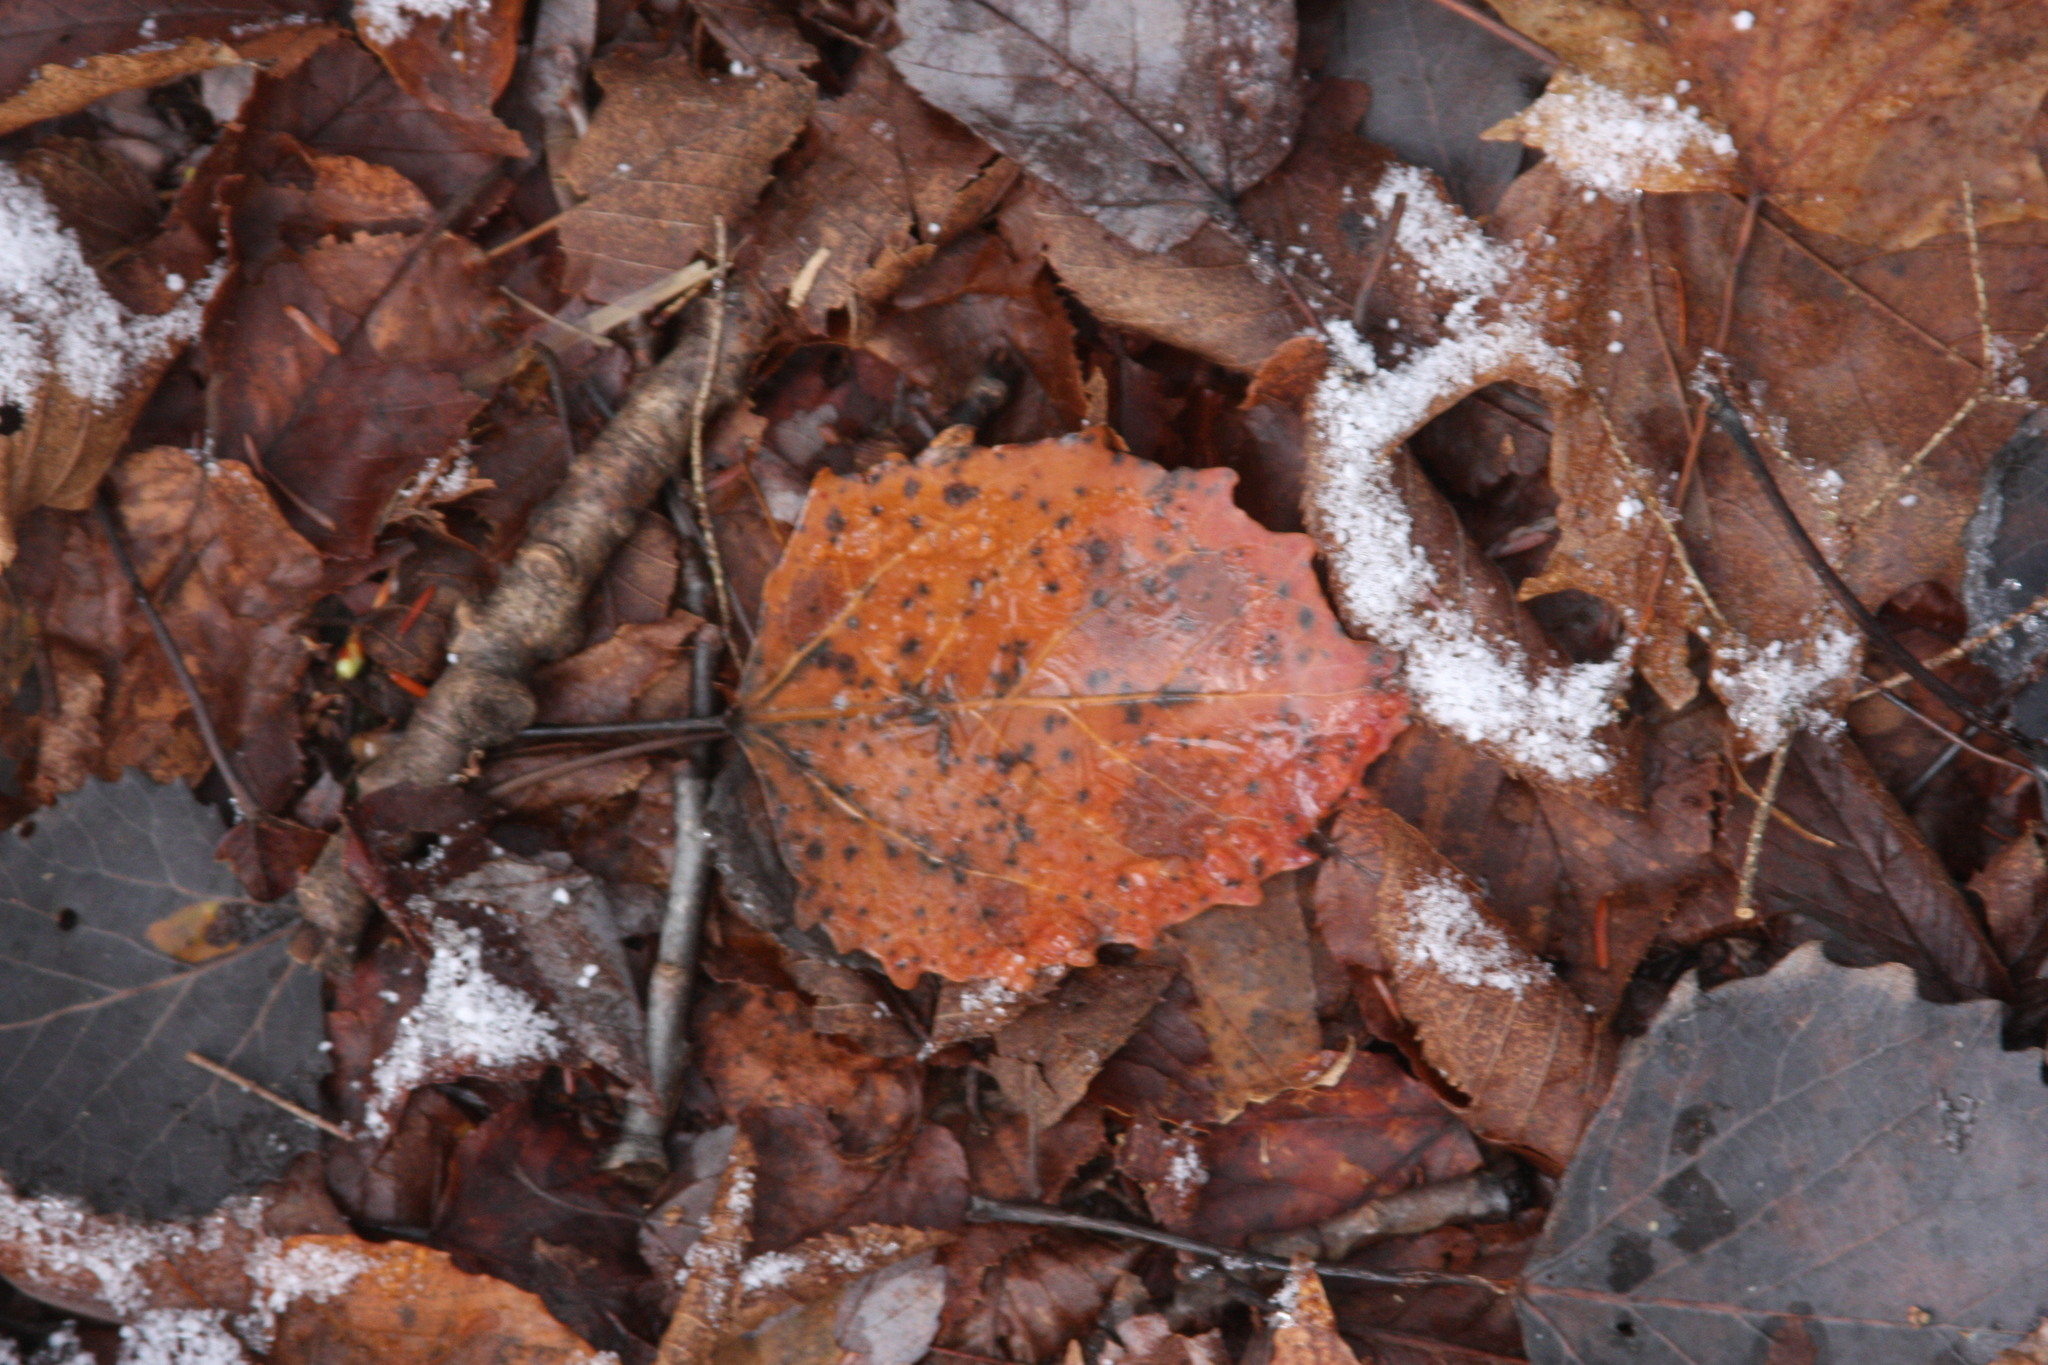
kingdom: Plantae
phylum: Tracheophyta
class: Magnoliopsida
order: Malpighiales
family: Salicaceae
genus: Populus
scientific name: Populus grandidentata
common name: Bigtooth aspen
